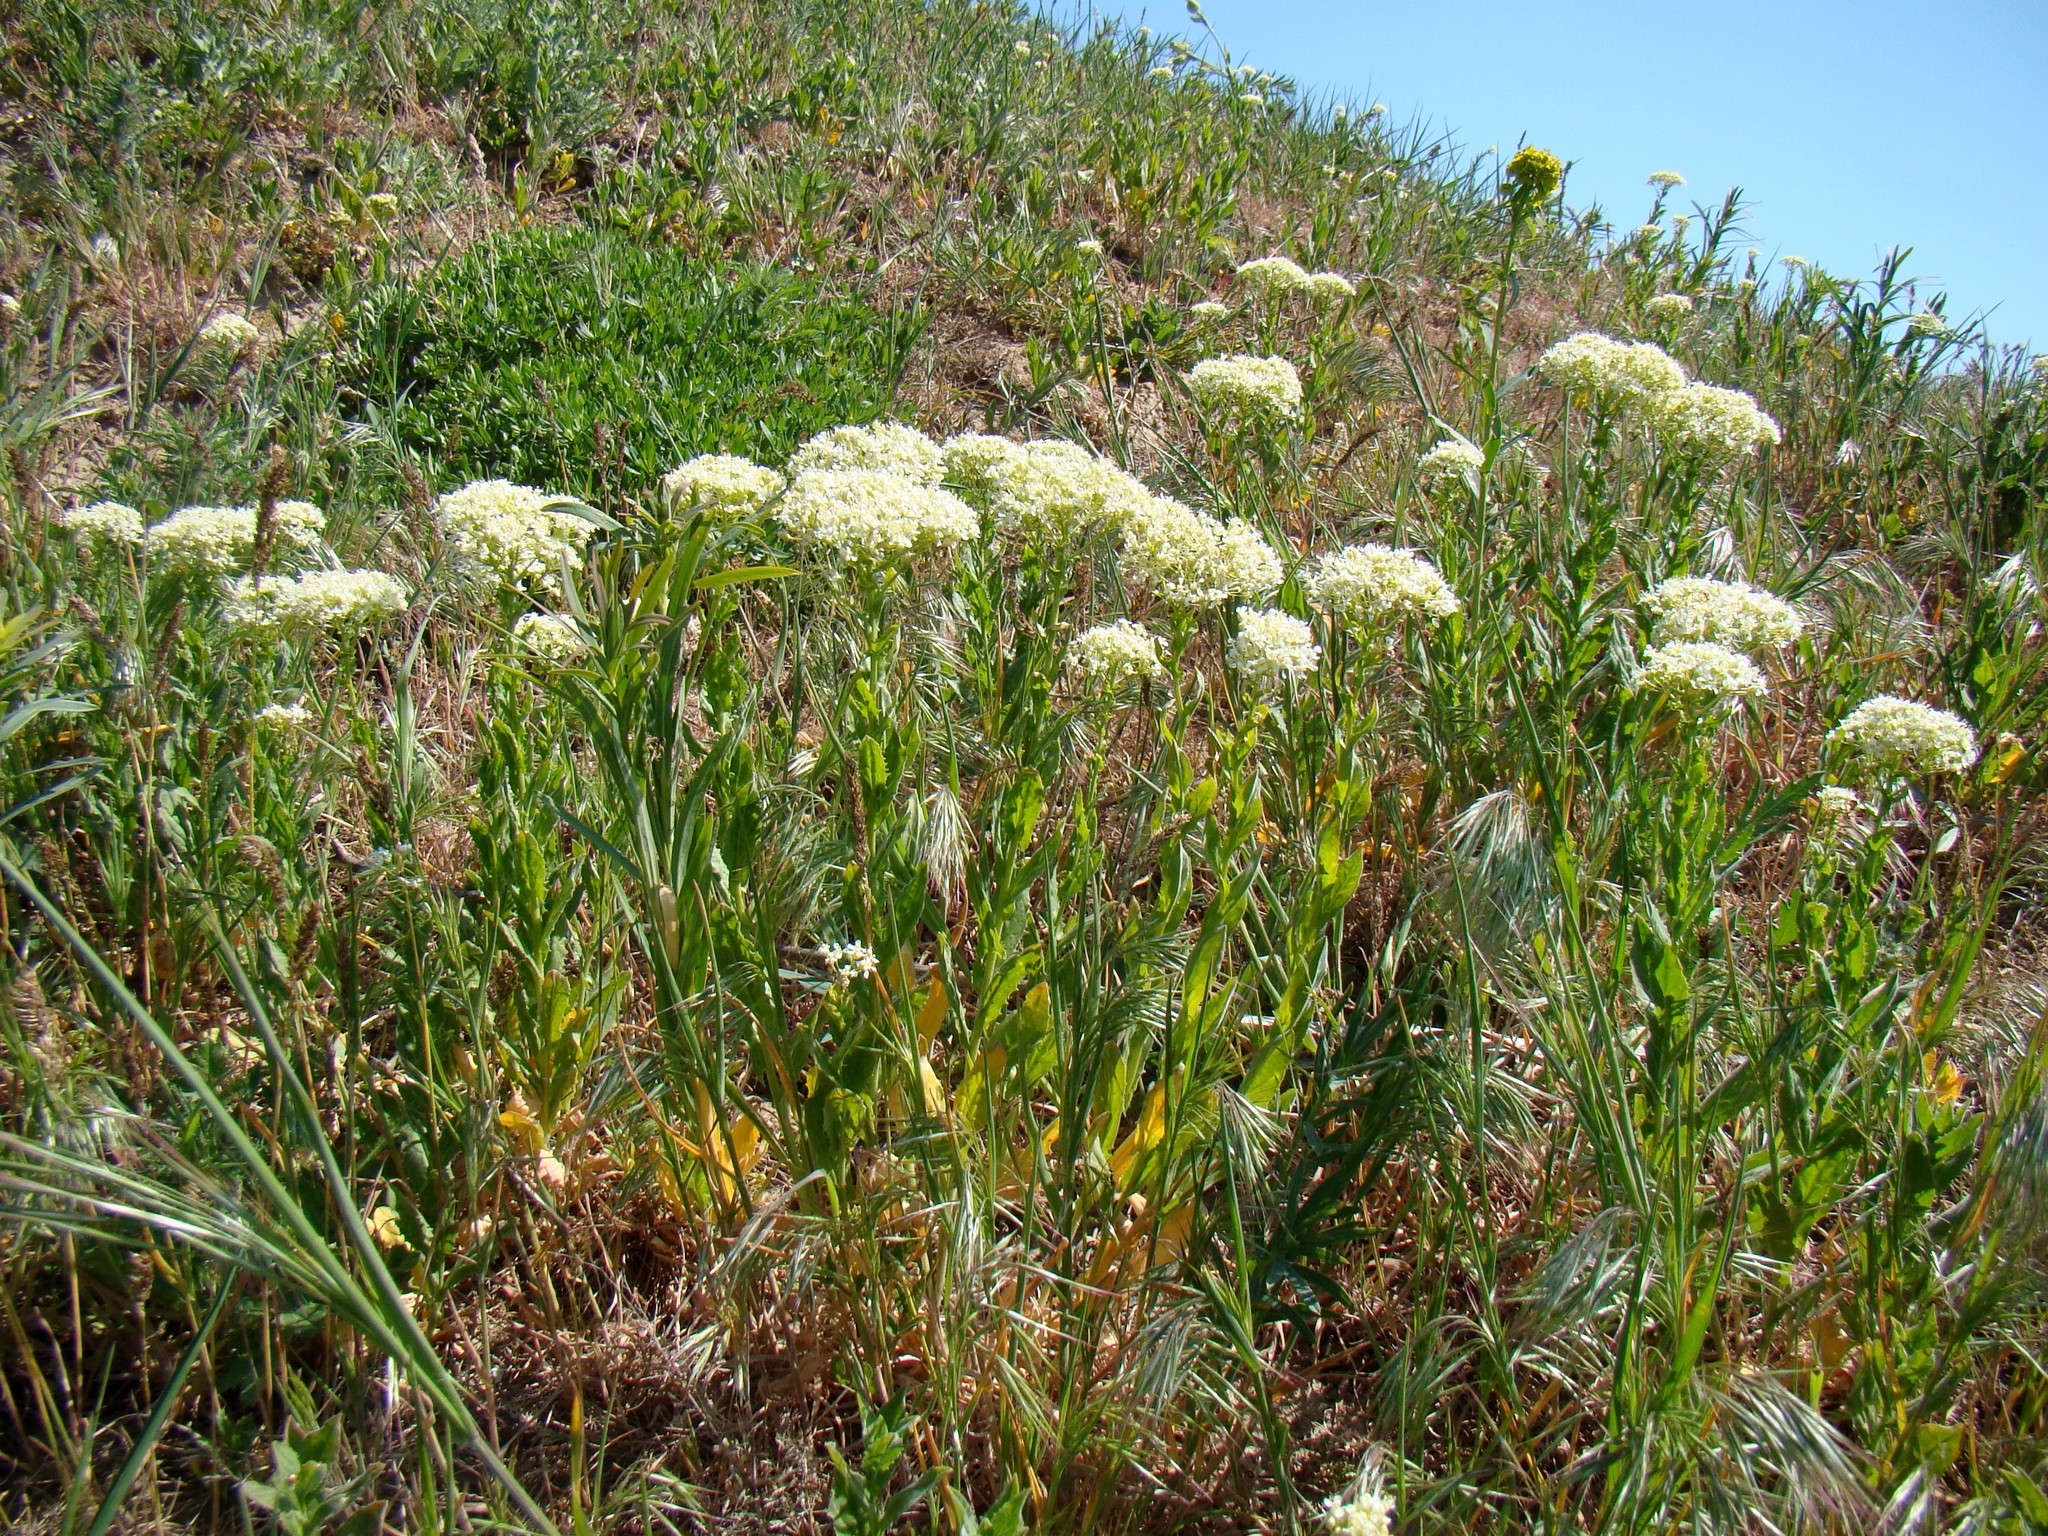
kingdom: Plantae
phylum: Tracheophyta
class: Magnoliopsida
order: Brassicales
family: Brassicaceae
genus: Lepidium
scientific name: Lepidium draba
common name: Hoary cress
